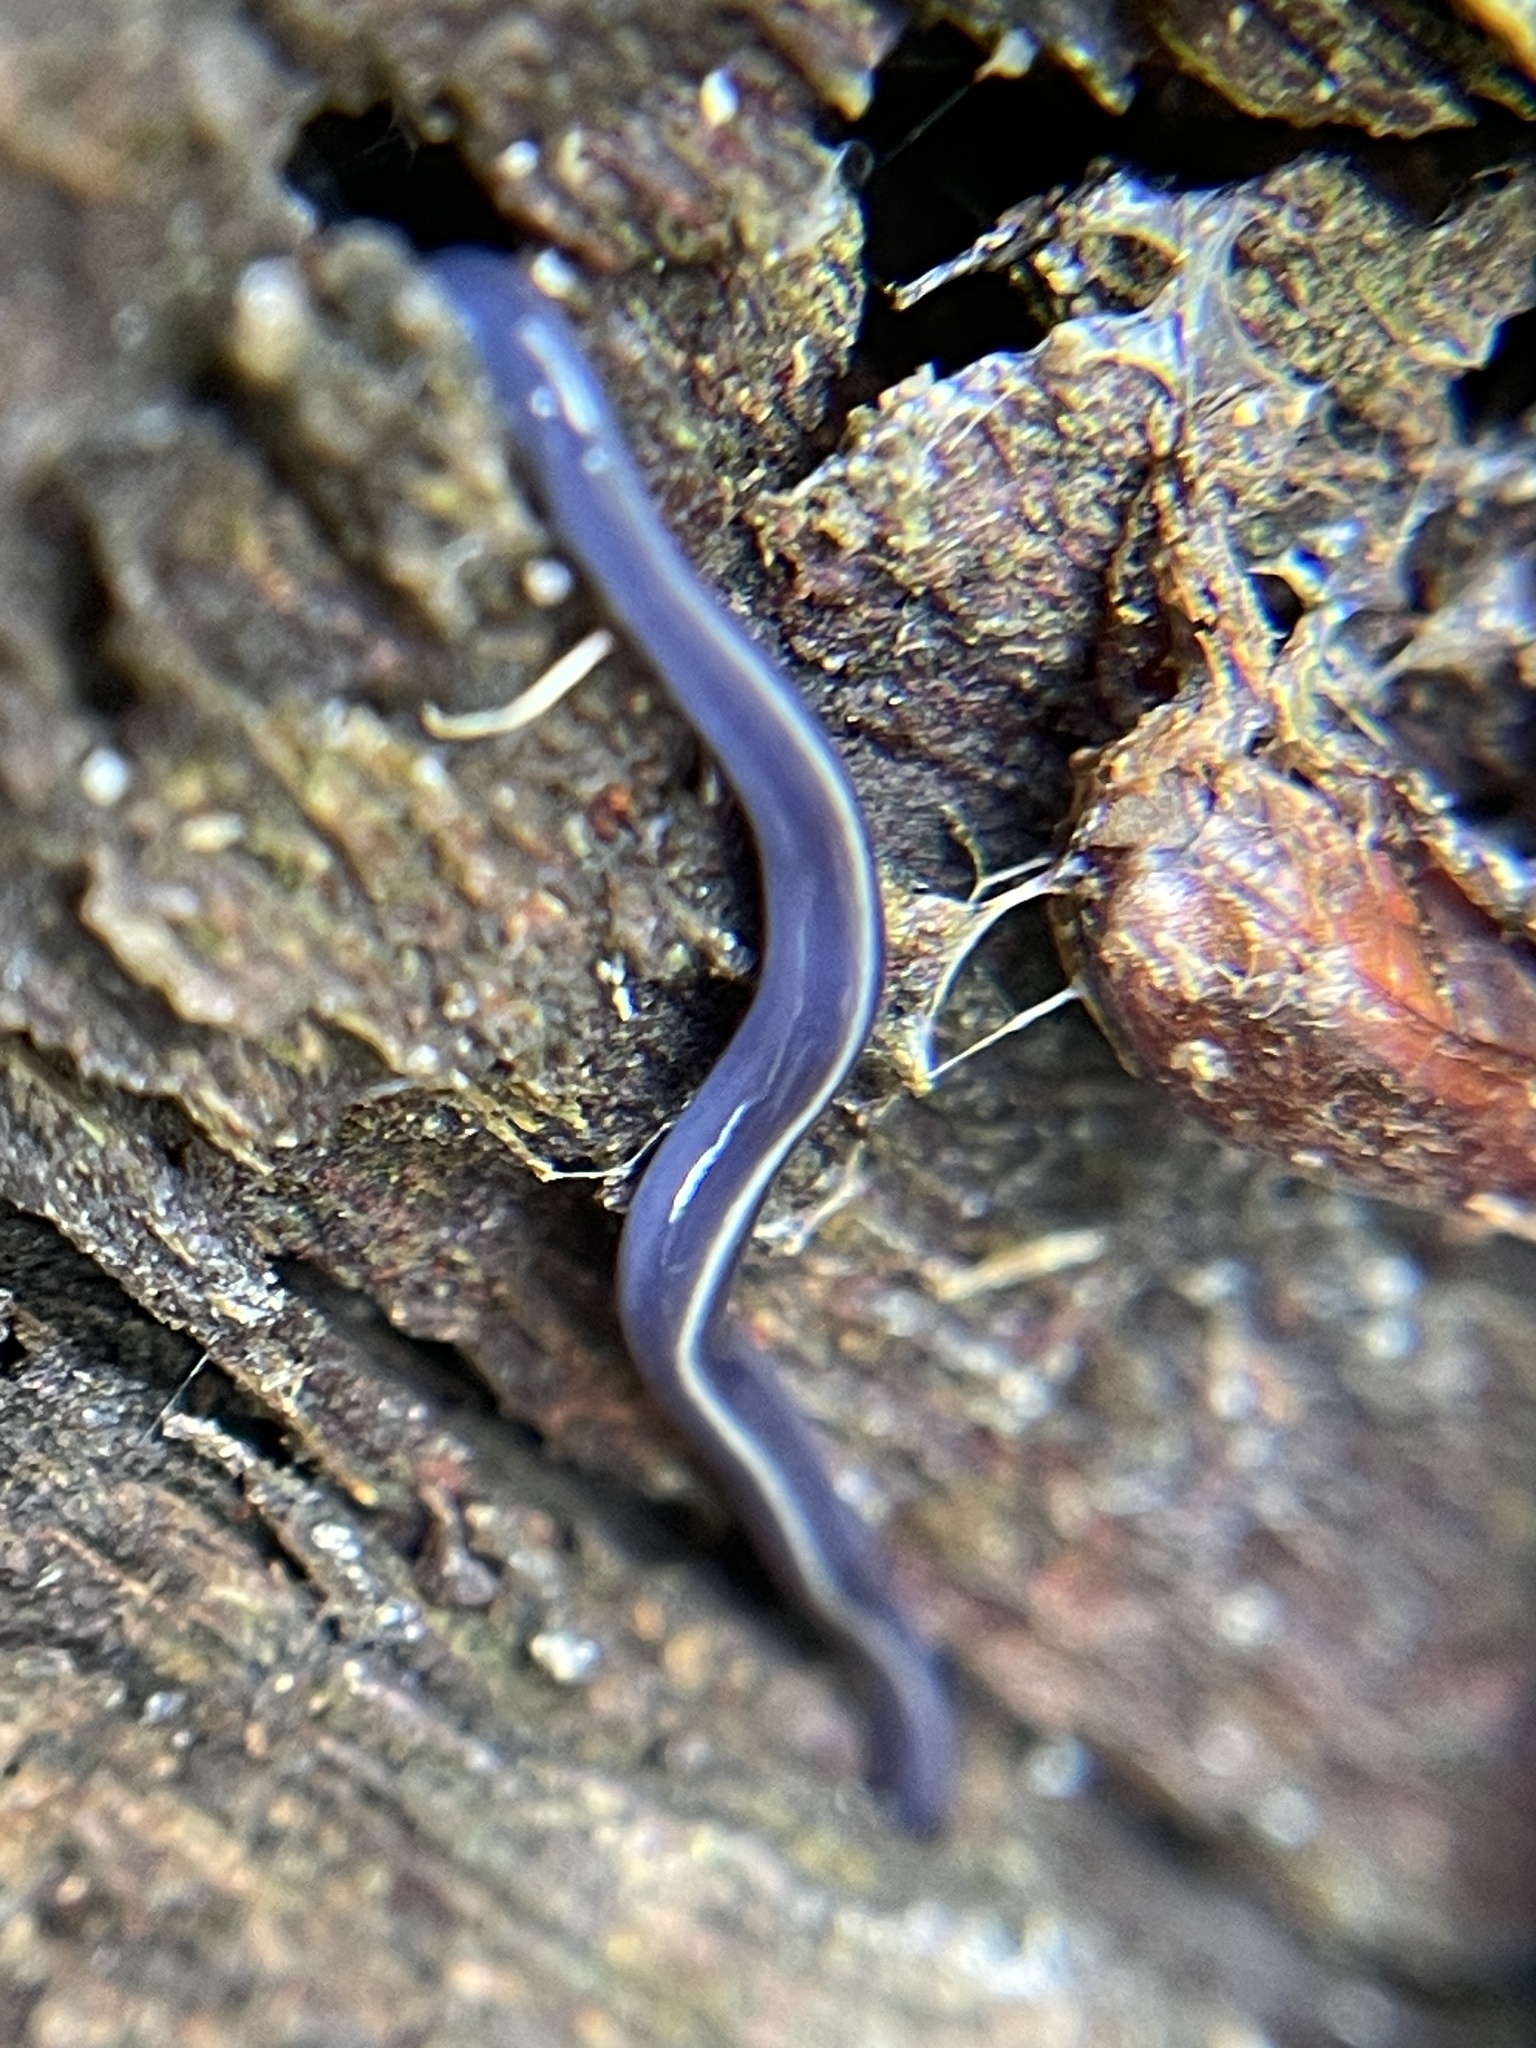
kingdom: Animalia
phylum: Platyhelminthes
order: Tricladida
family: Geoplanidae
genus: Caenoplana
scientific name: Caenoplana coerulea
